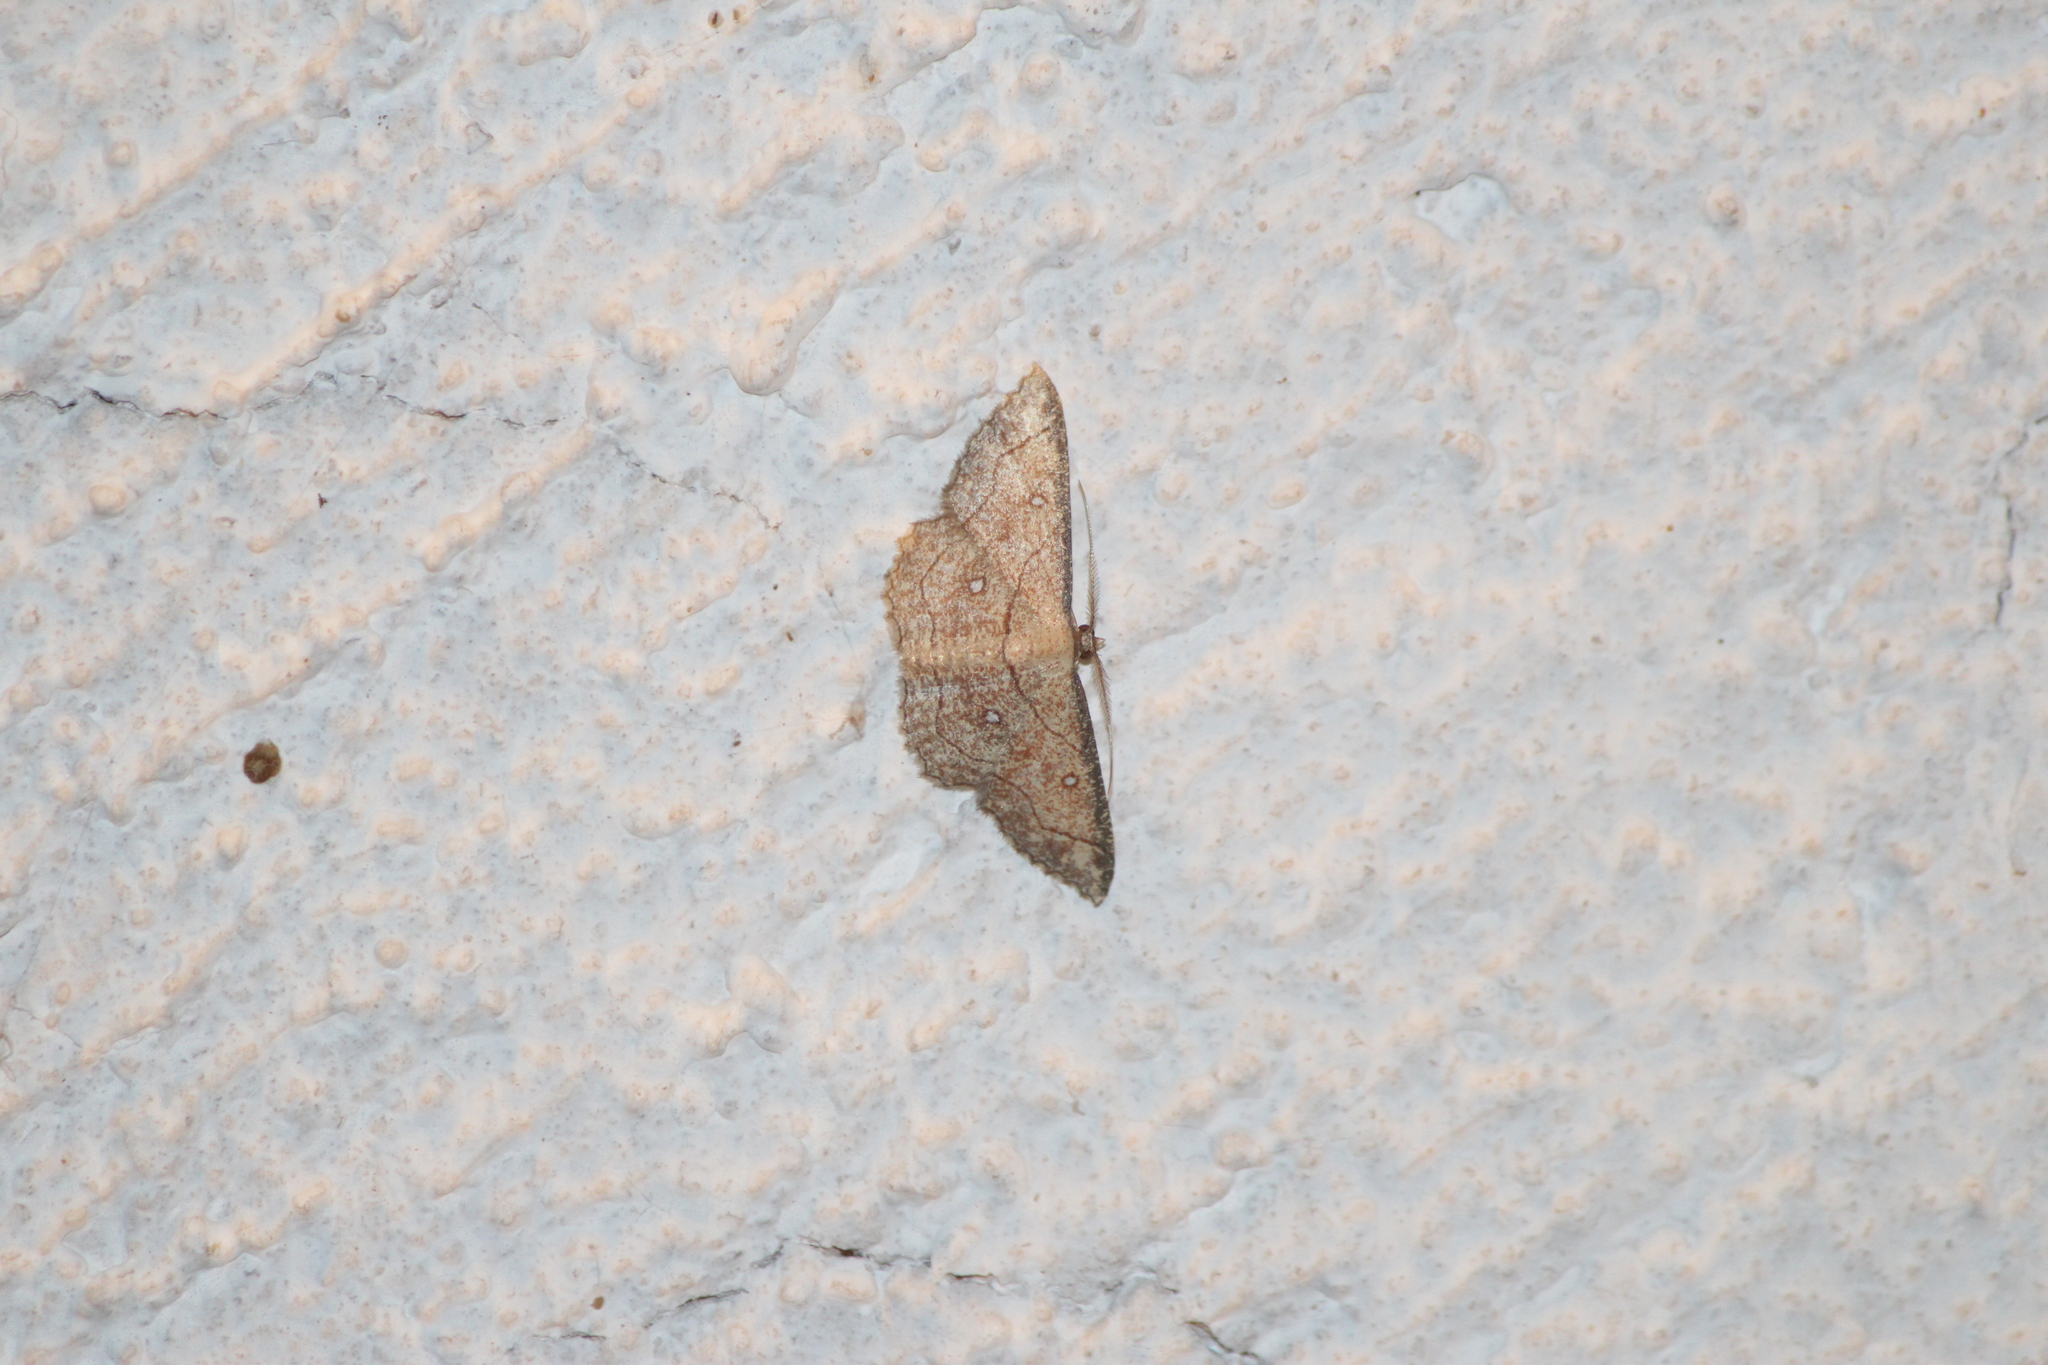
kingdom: Animalia
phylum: Arthropoda
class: Insecta
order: Lepidoptera
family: Geometridae
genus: Cyclophora
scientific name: Cyclophora coecaria
